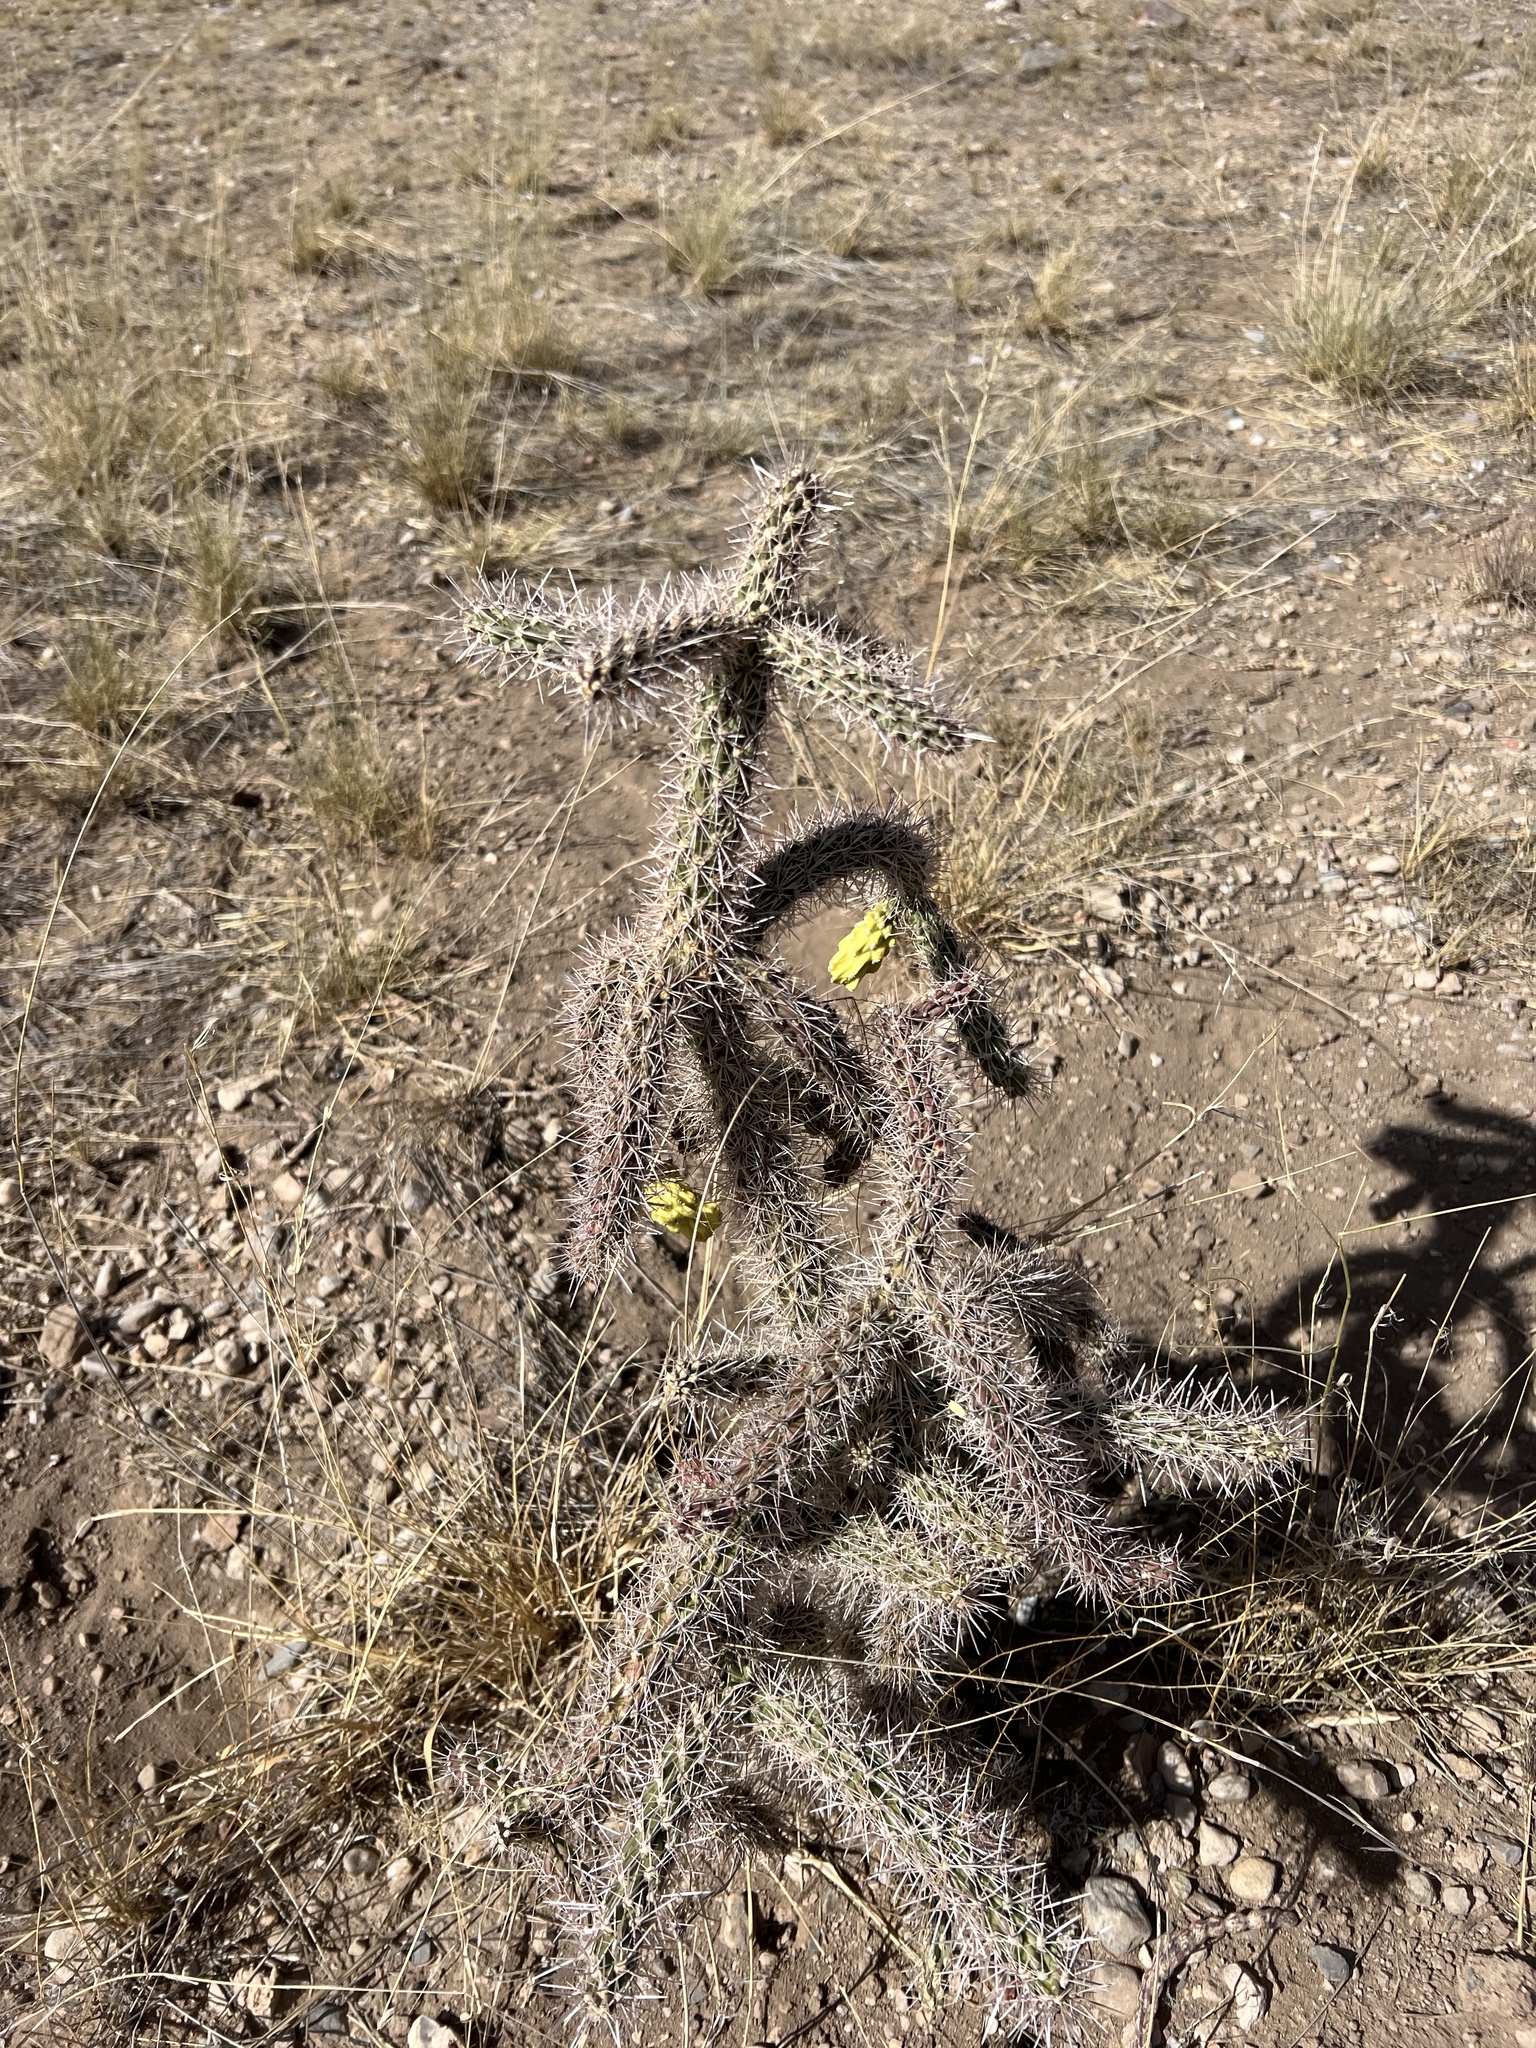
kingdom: Plantae
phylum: Tracheophyta
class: Magnoliopsida
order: Caryophyllales
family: Cactaceae
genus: Cylindropuntia
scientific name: Cylindropuntia imbricata
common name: Candelabrum cactus
